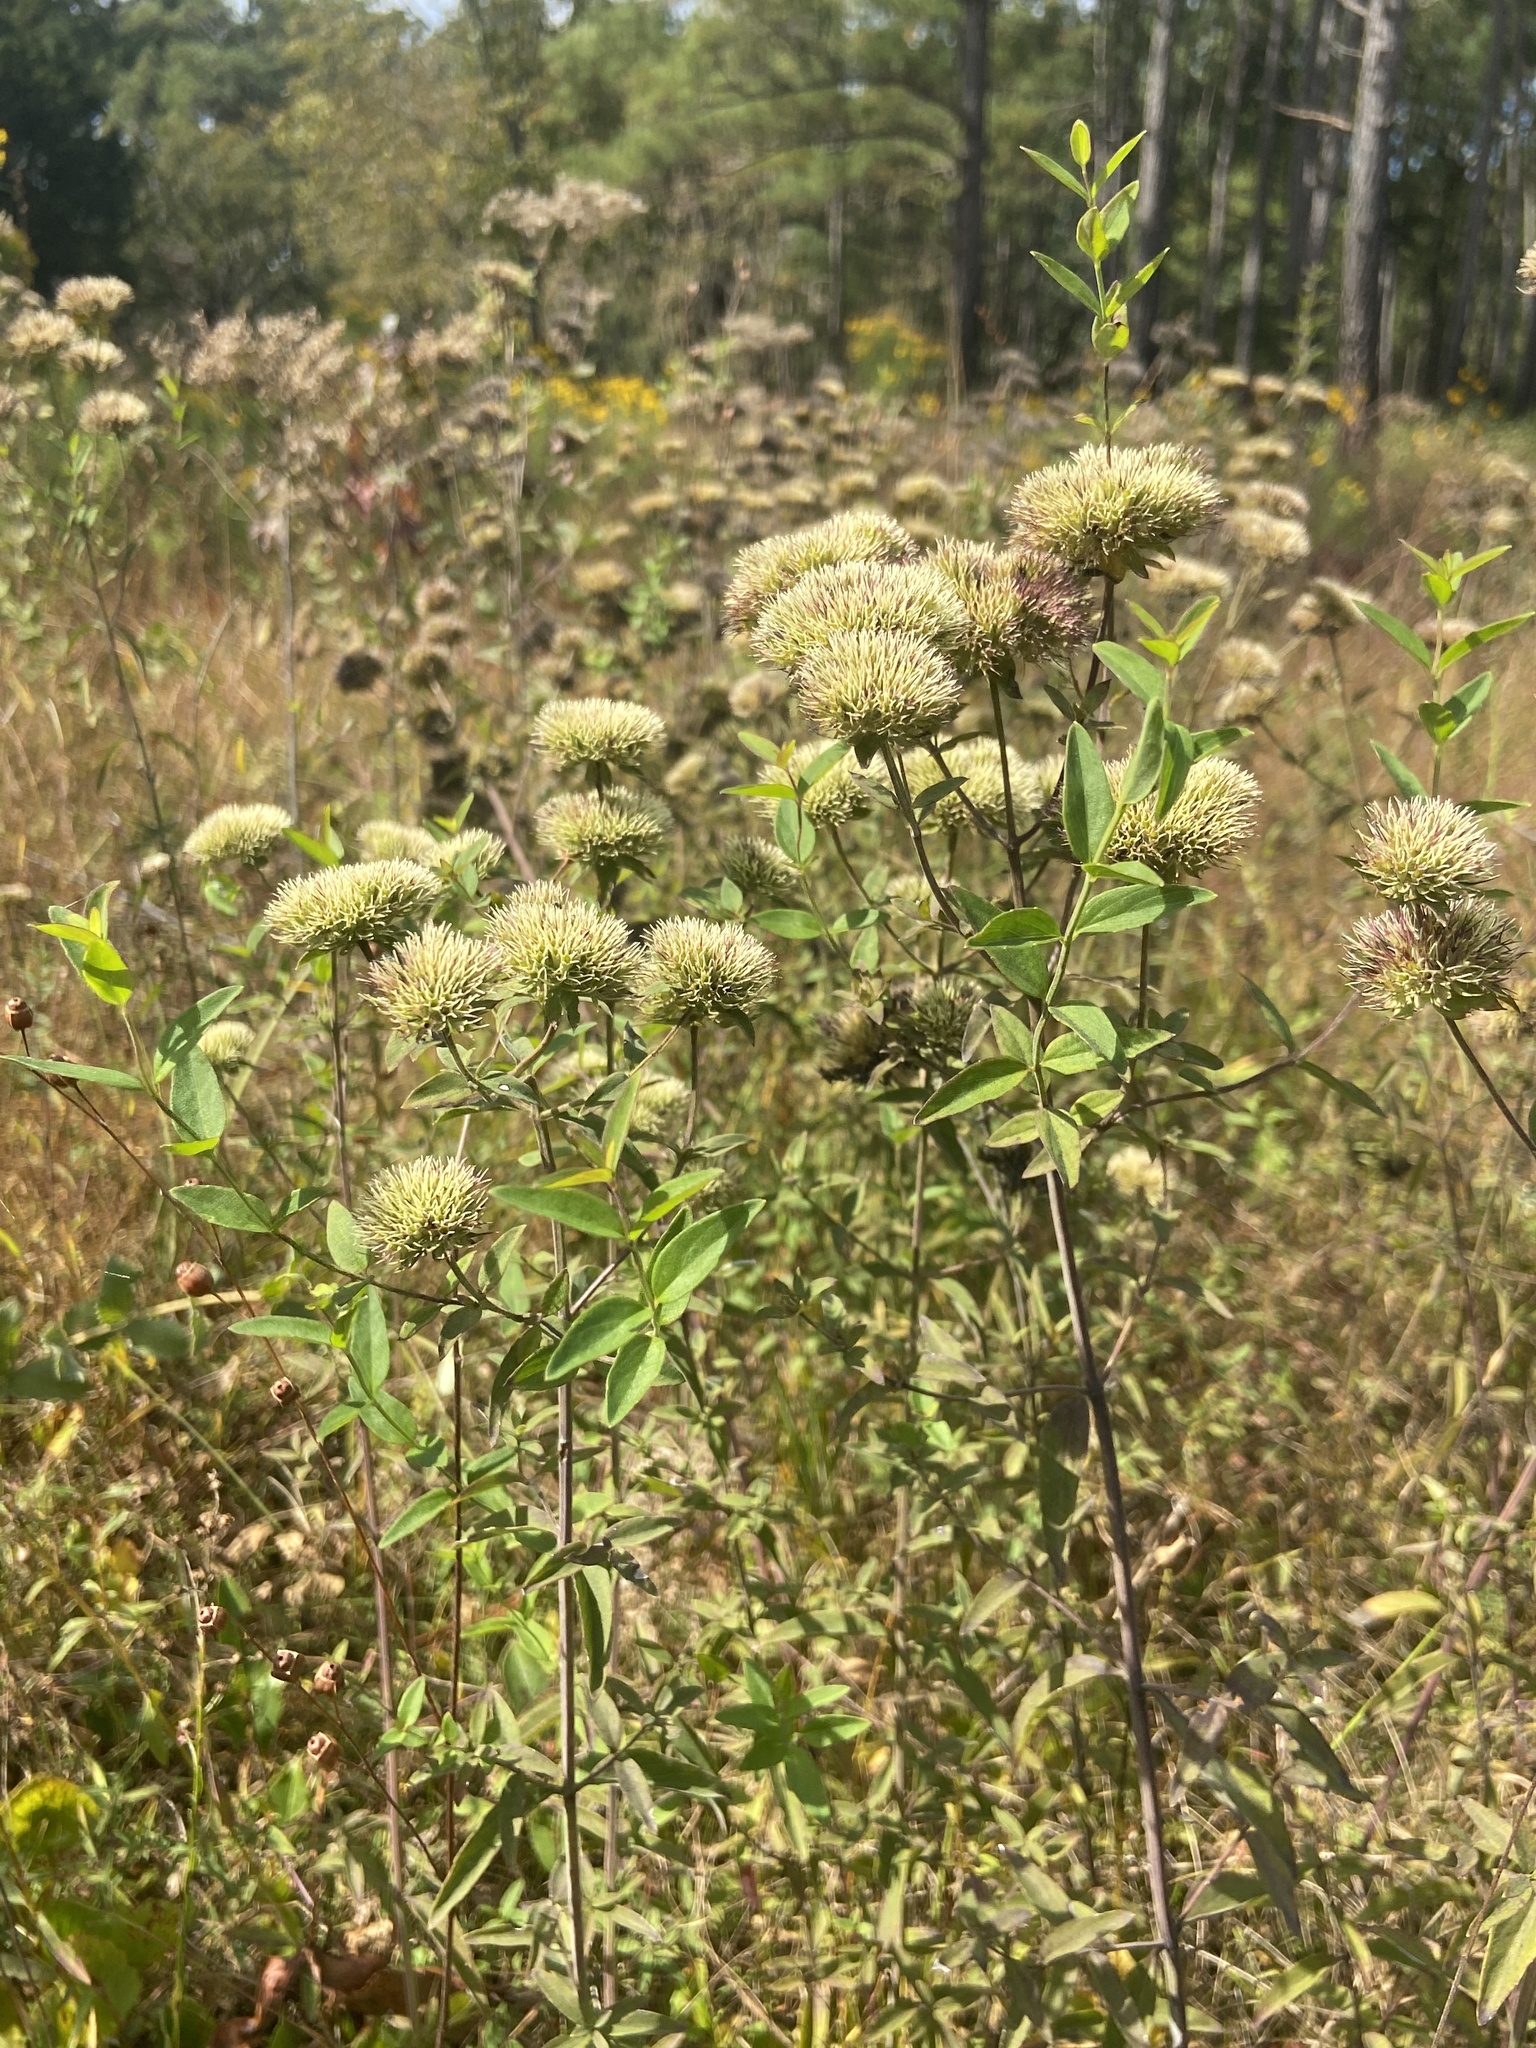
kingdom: Plantae
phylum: Tracheophyta
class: Magnoliopsida
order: Lamiales
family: Lamiaceae
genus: Pycnanthemum
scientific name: Pycnanthemum flexuosum
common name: Appalachian mountain-mint
